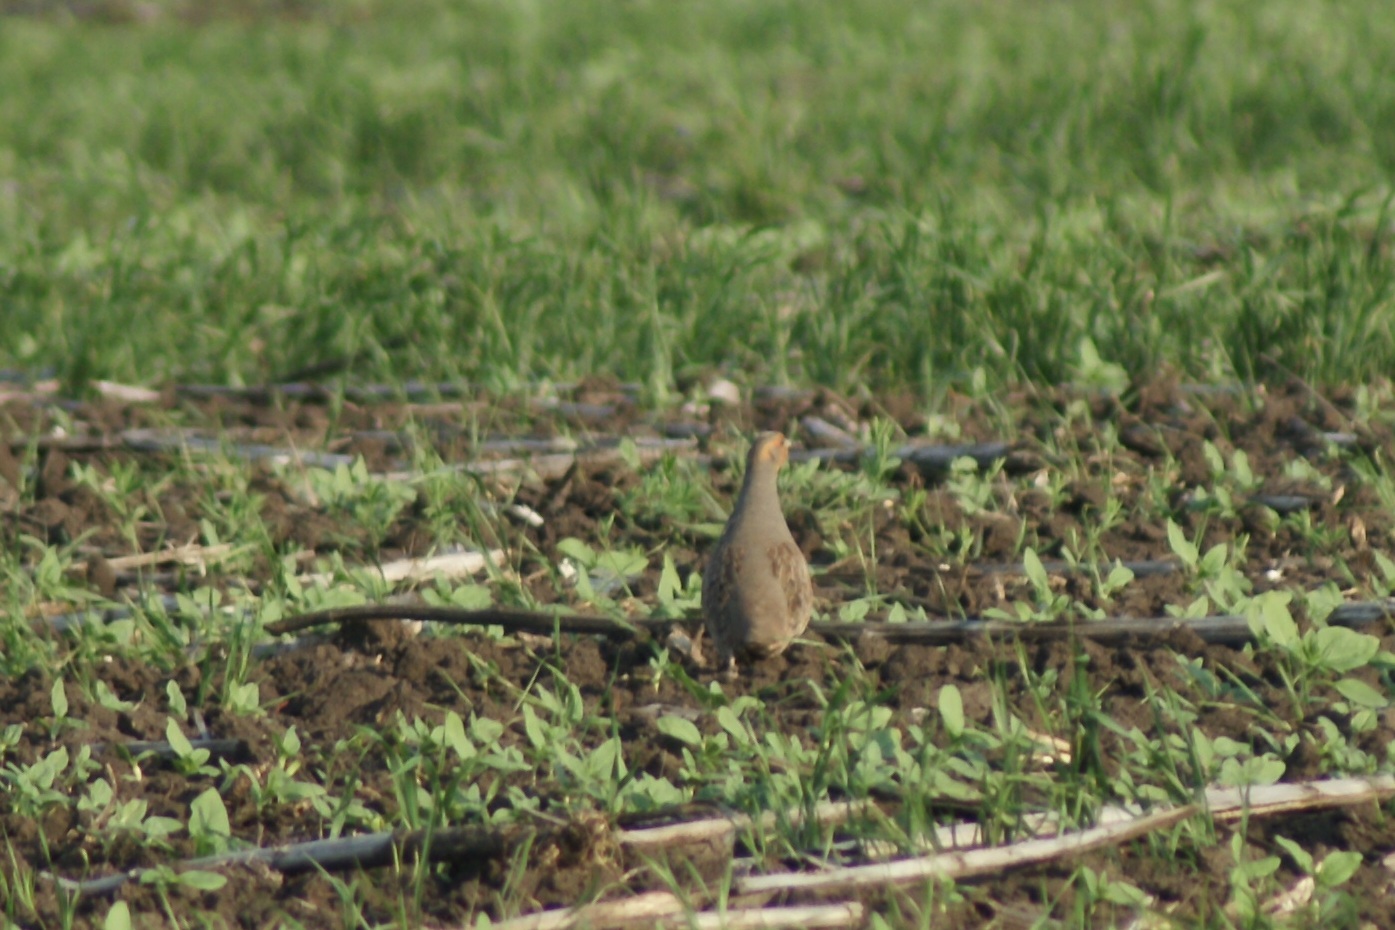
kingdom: Animalia
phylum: Chordata
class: Aves
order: Galliformes
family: Phasianidae
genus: Perdix
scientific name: Perdix perdix
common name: Grey partridge
